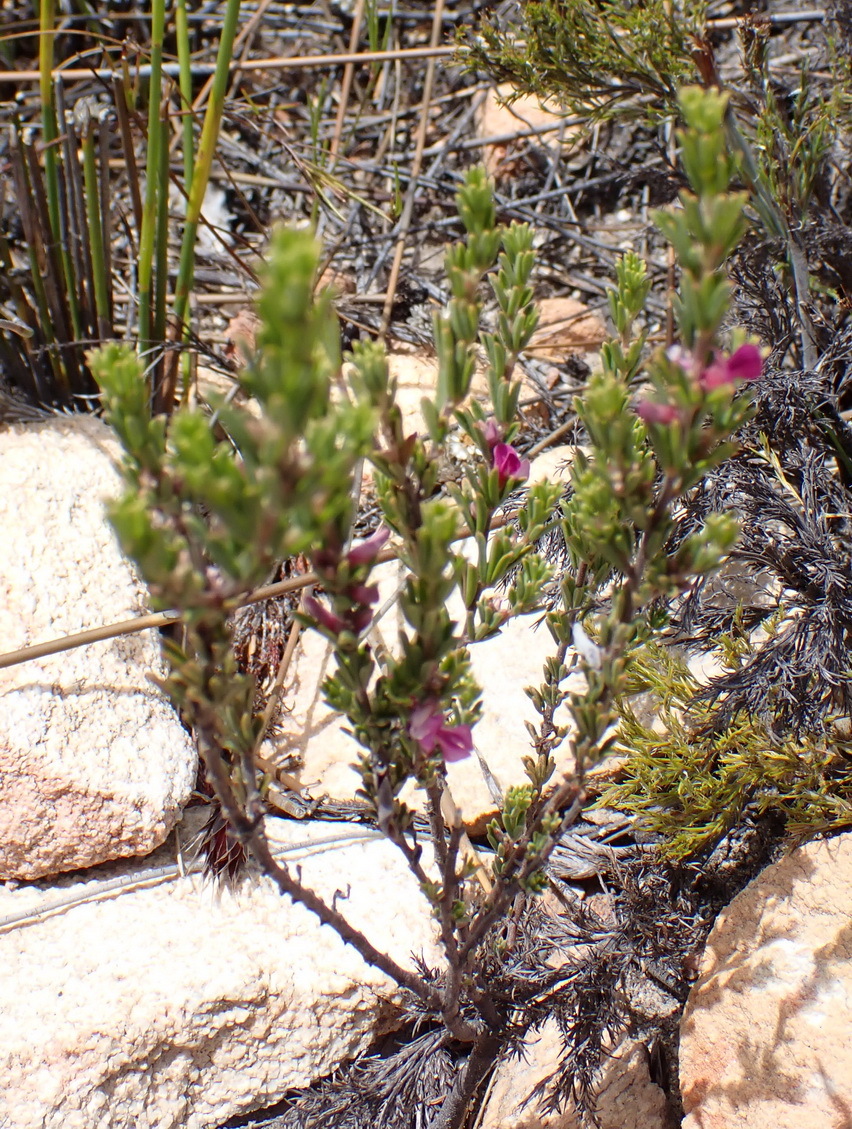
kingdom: Plantae
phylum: Tracheophyta
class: Magnoliopsida
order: Fabales
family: Fabaceae
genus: Indigofera
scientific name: Indigofera pappei
